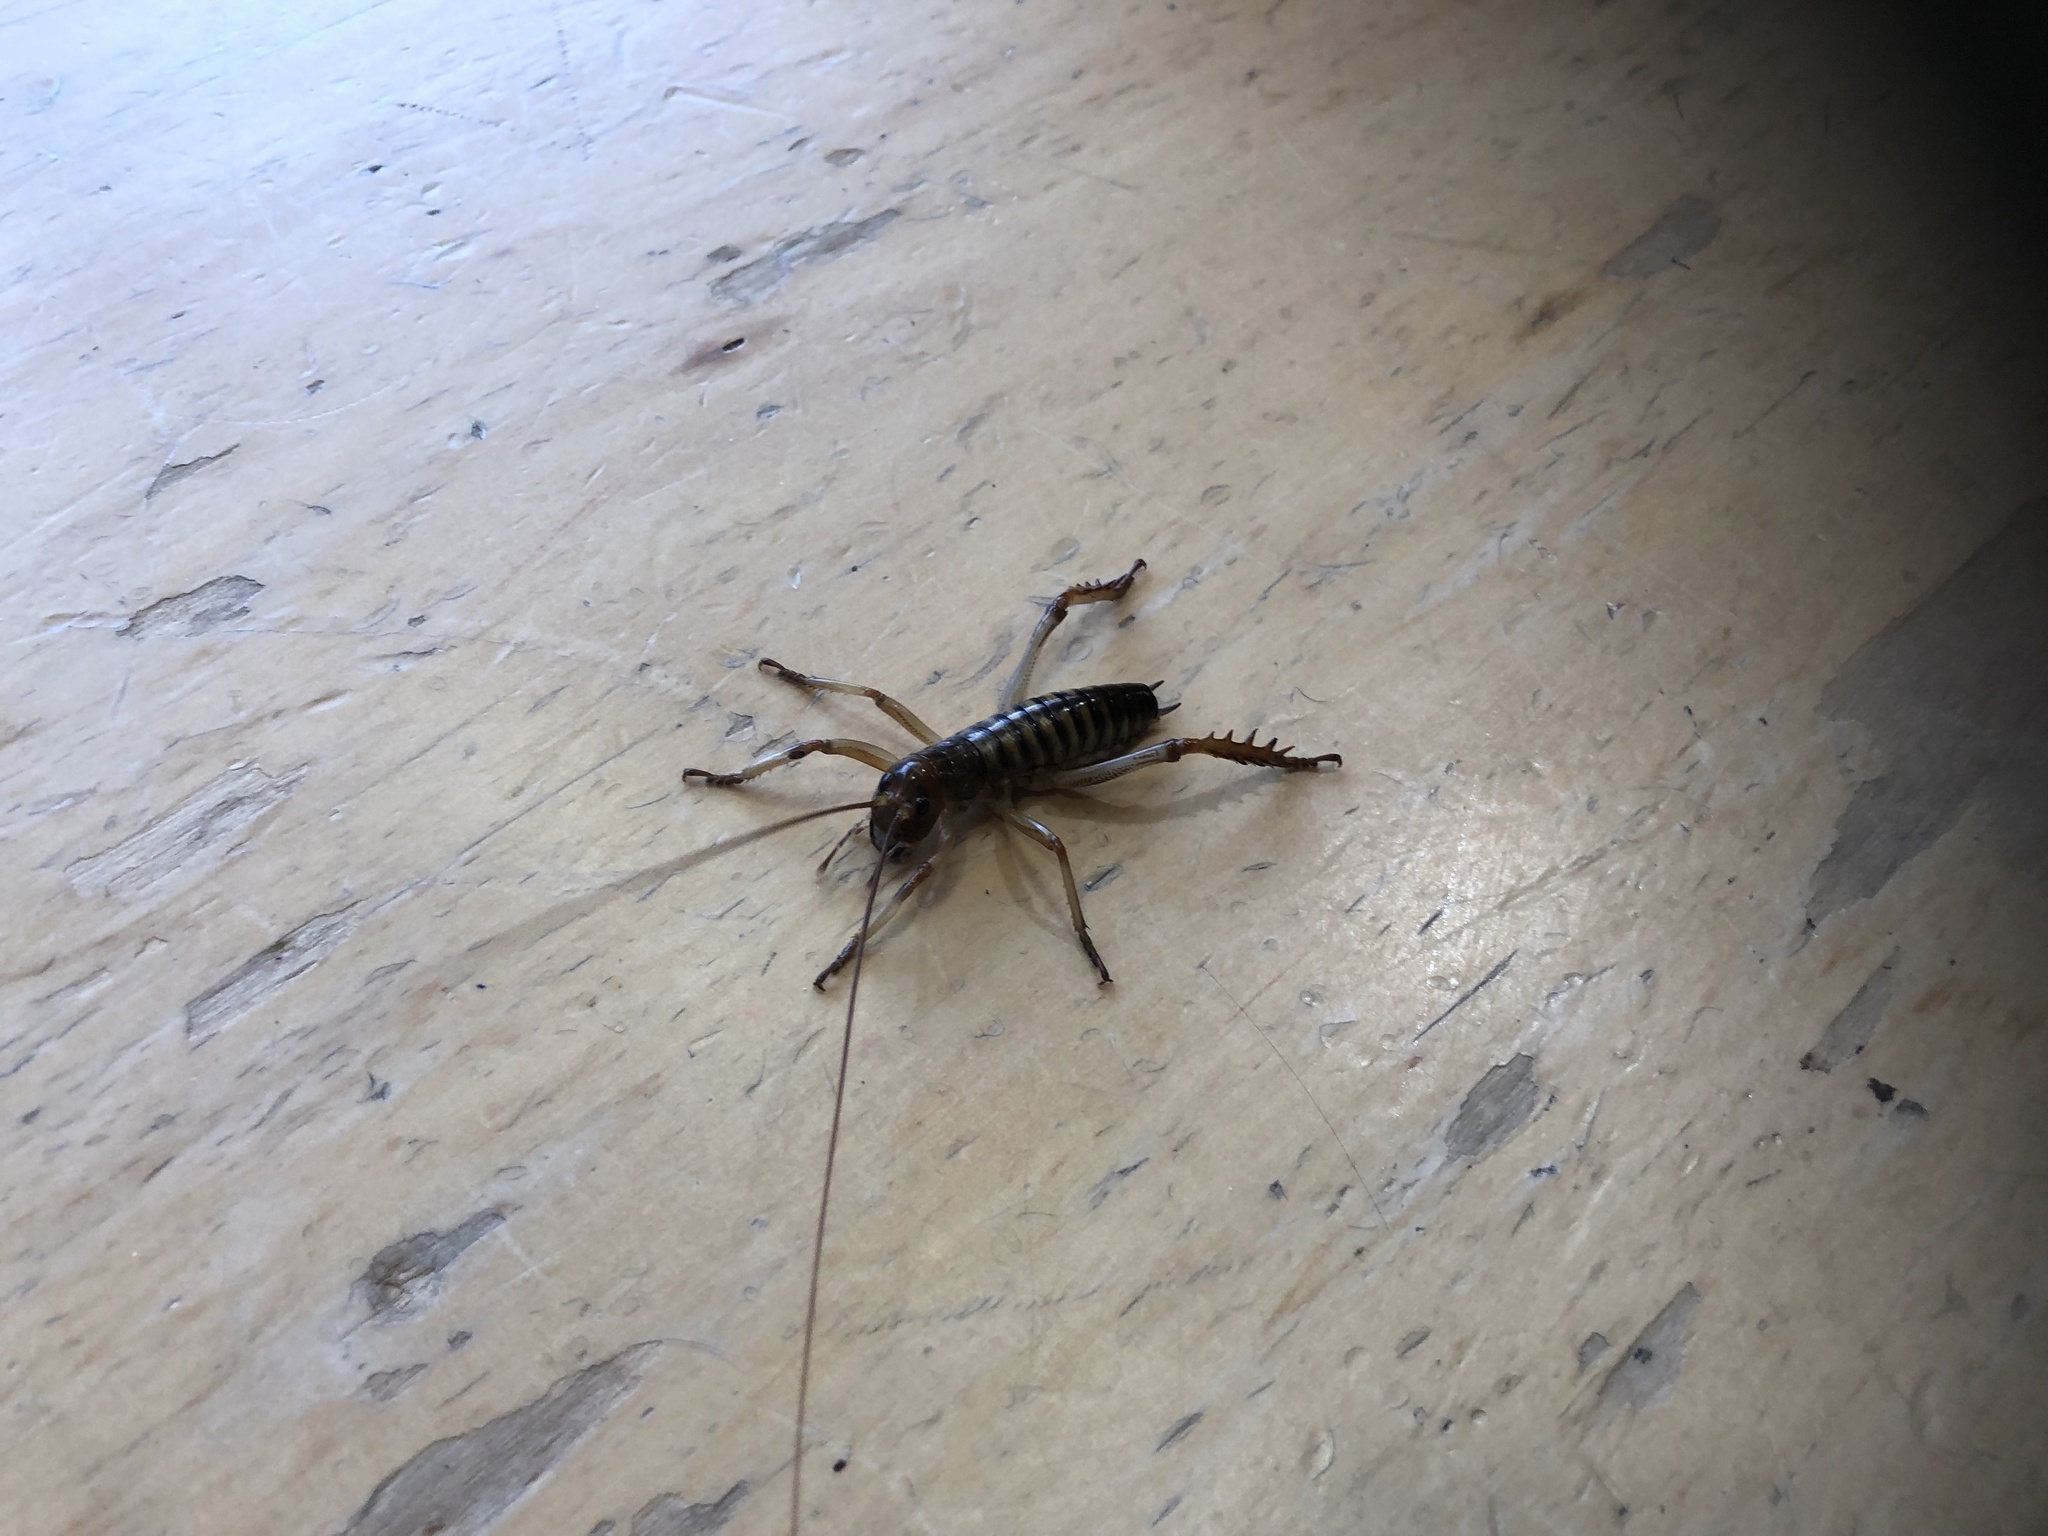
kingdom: Animalia
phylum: Arthropoda
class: Insecta
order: Orthoptera
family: Anostostomatidae
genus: Hemideina
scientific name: Hemideina crassidens
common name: Wellington tree weta
